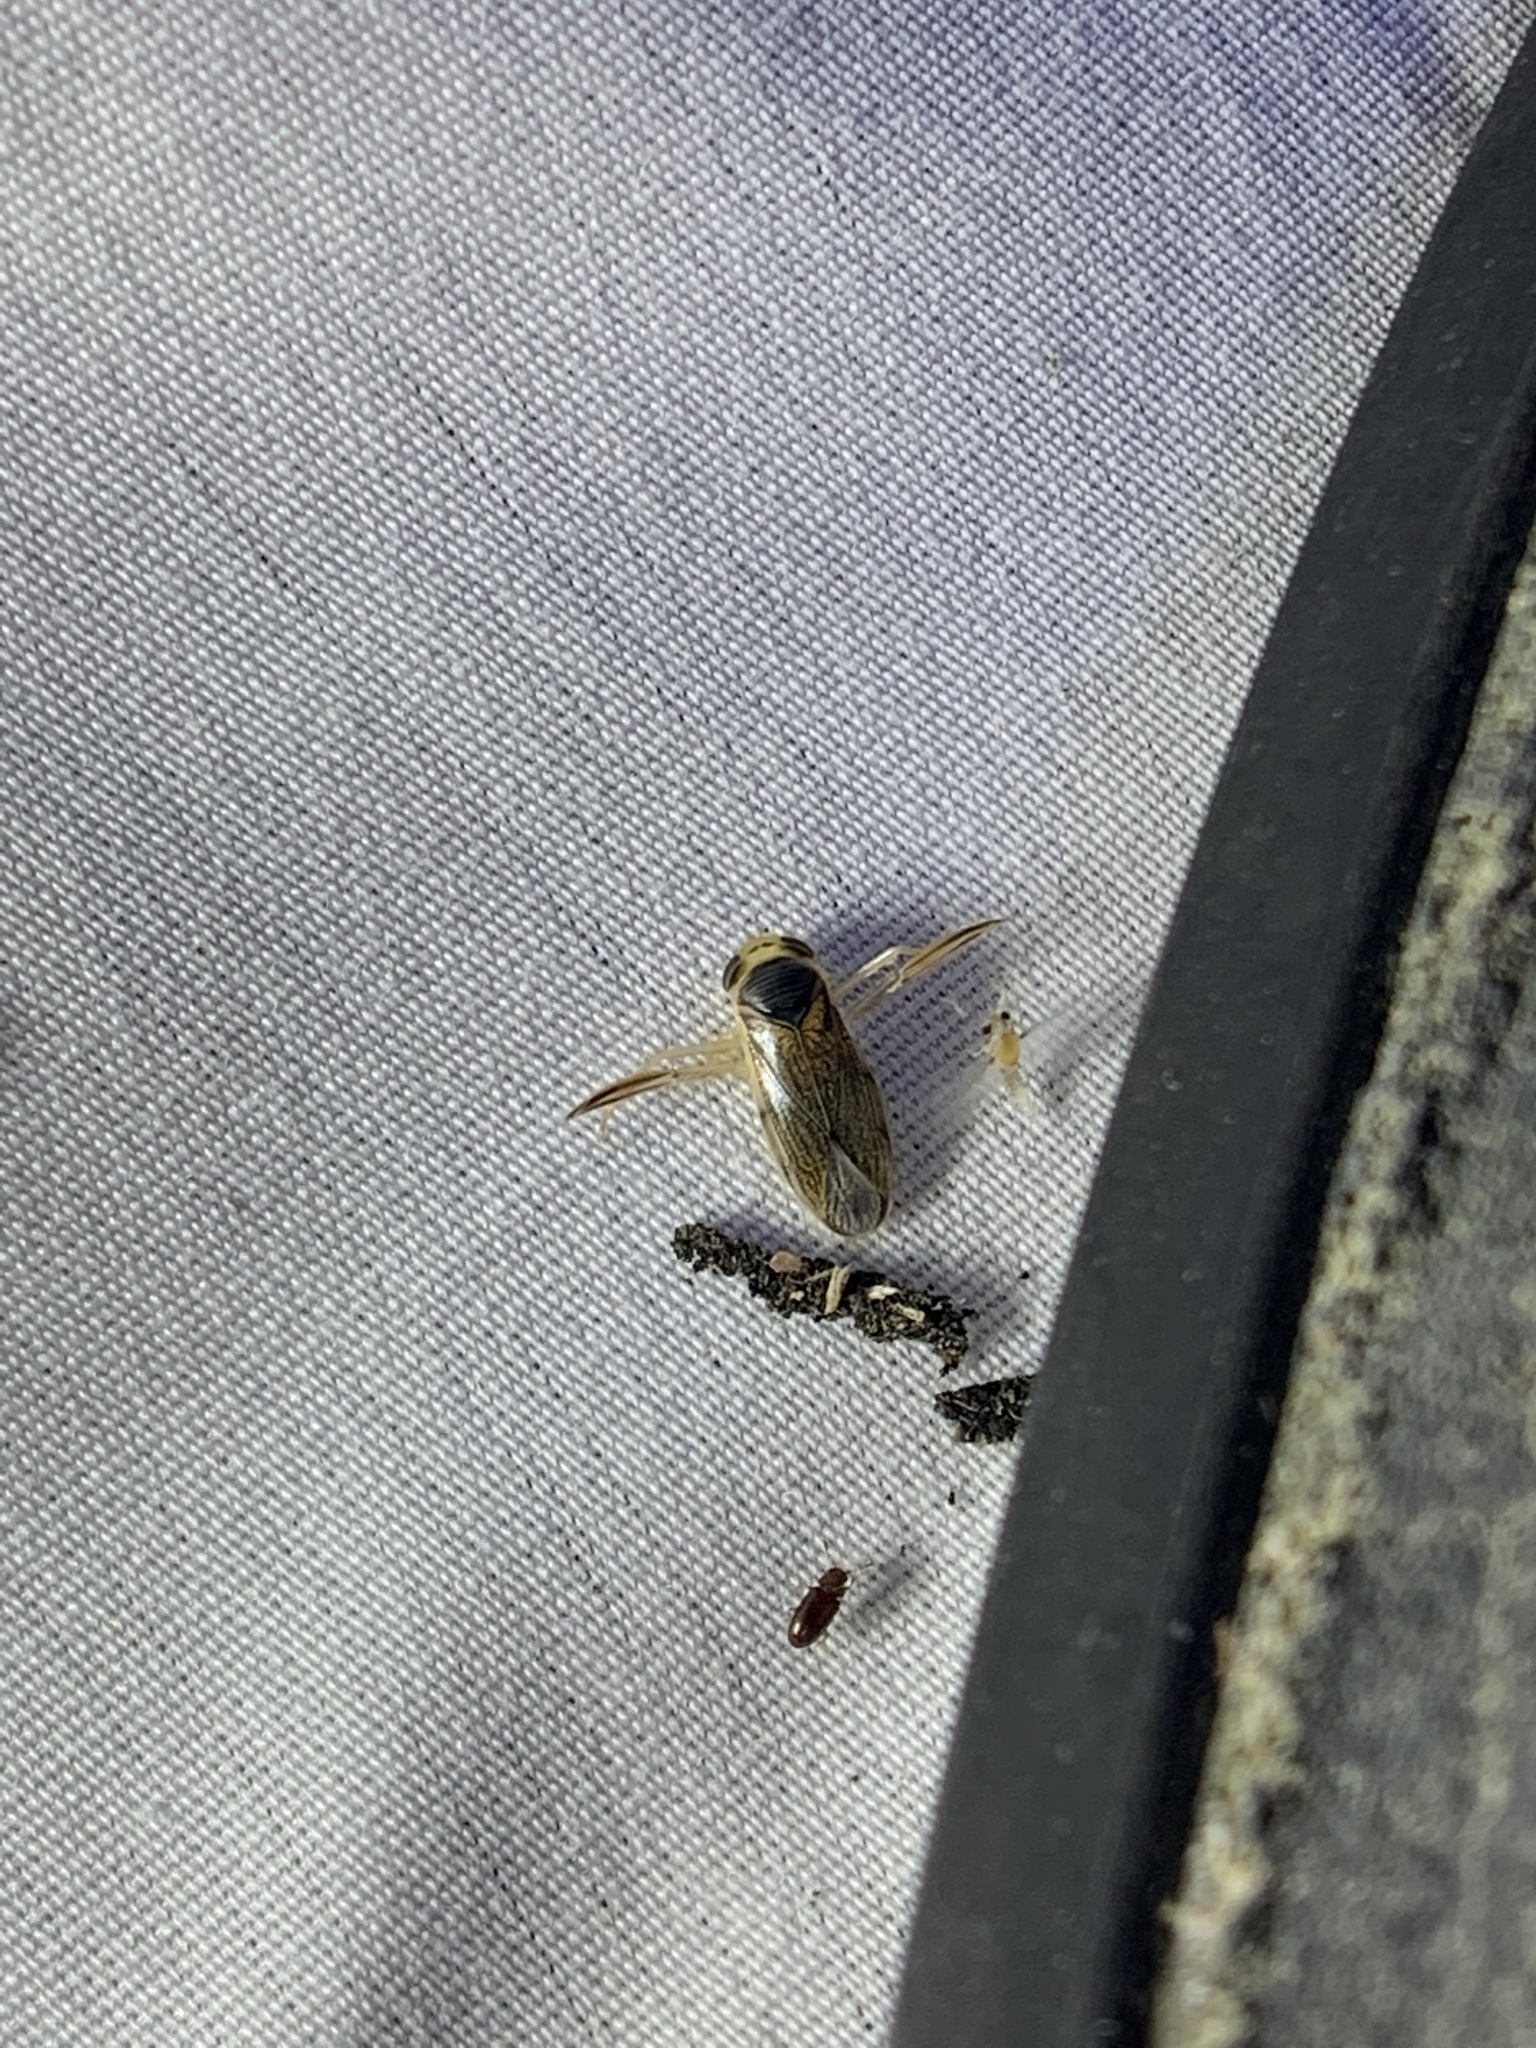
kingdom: Animalia
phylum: Arthropoda
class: Insecta
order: Hemiptera
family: Corixidae
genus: Corisella
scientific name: Corisella edulis
